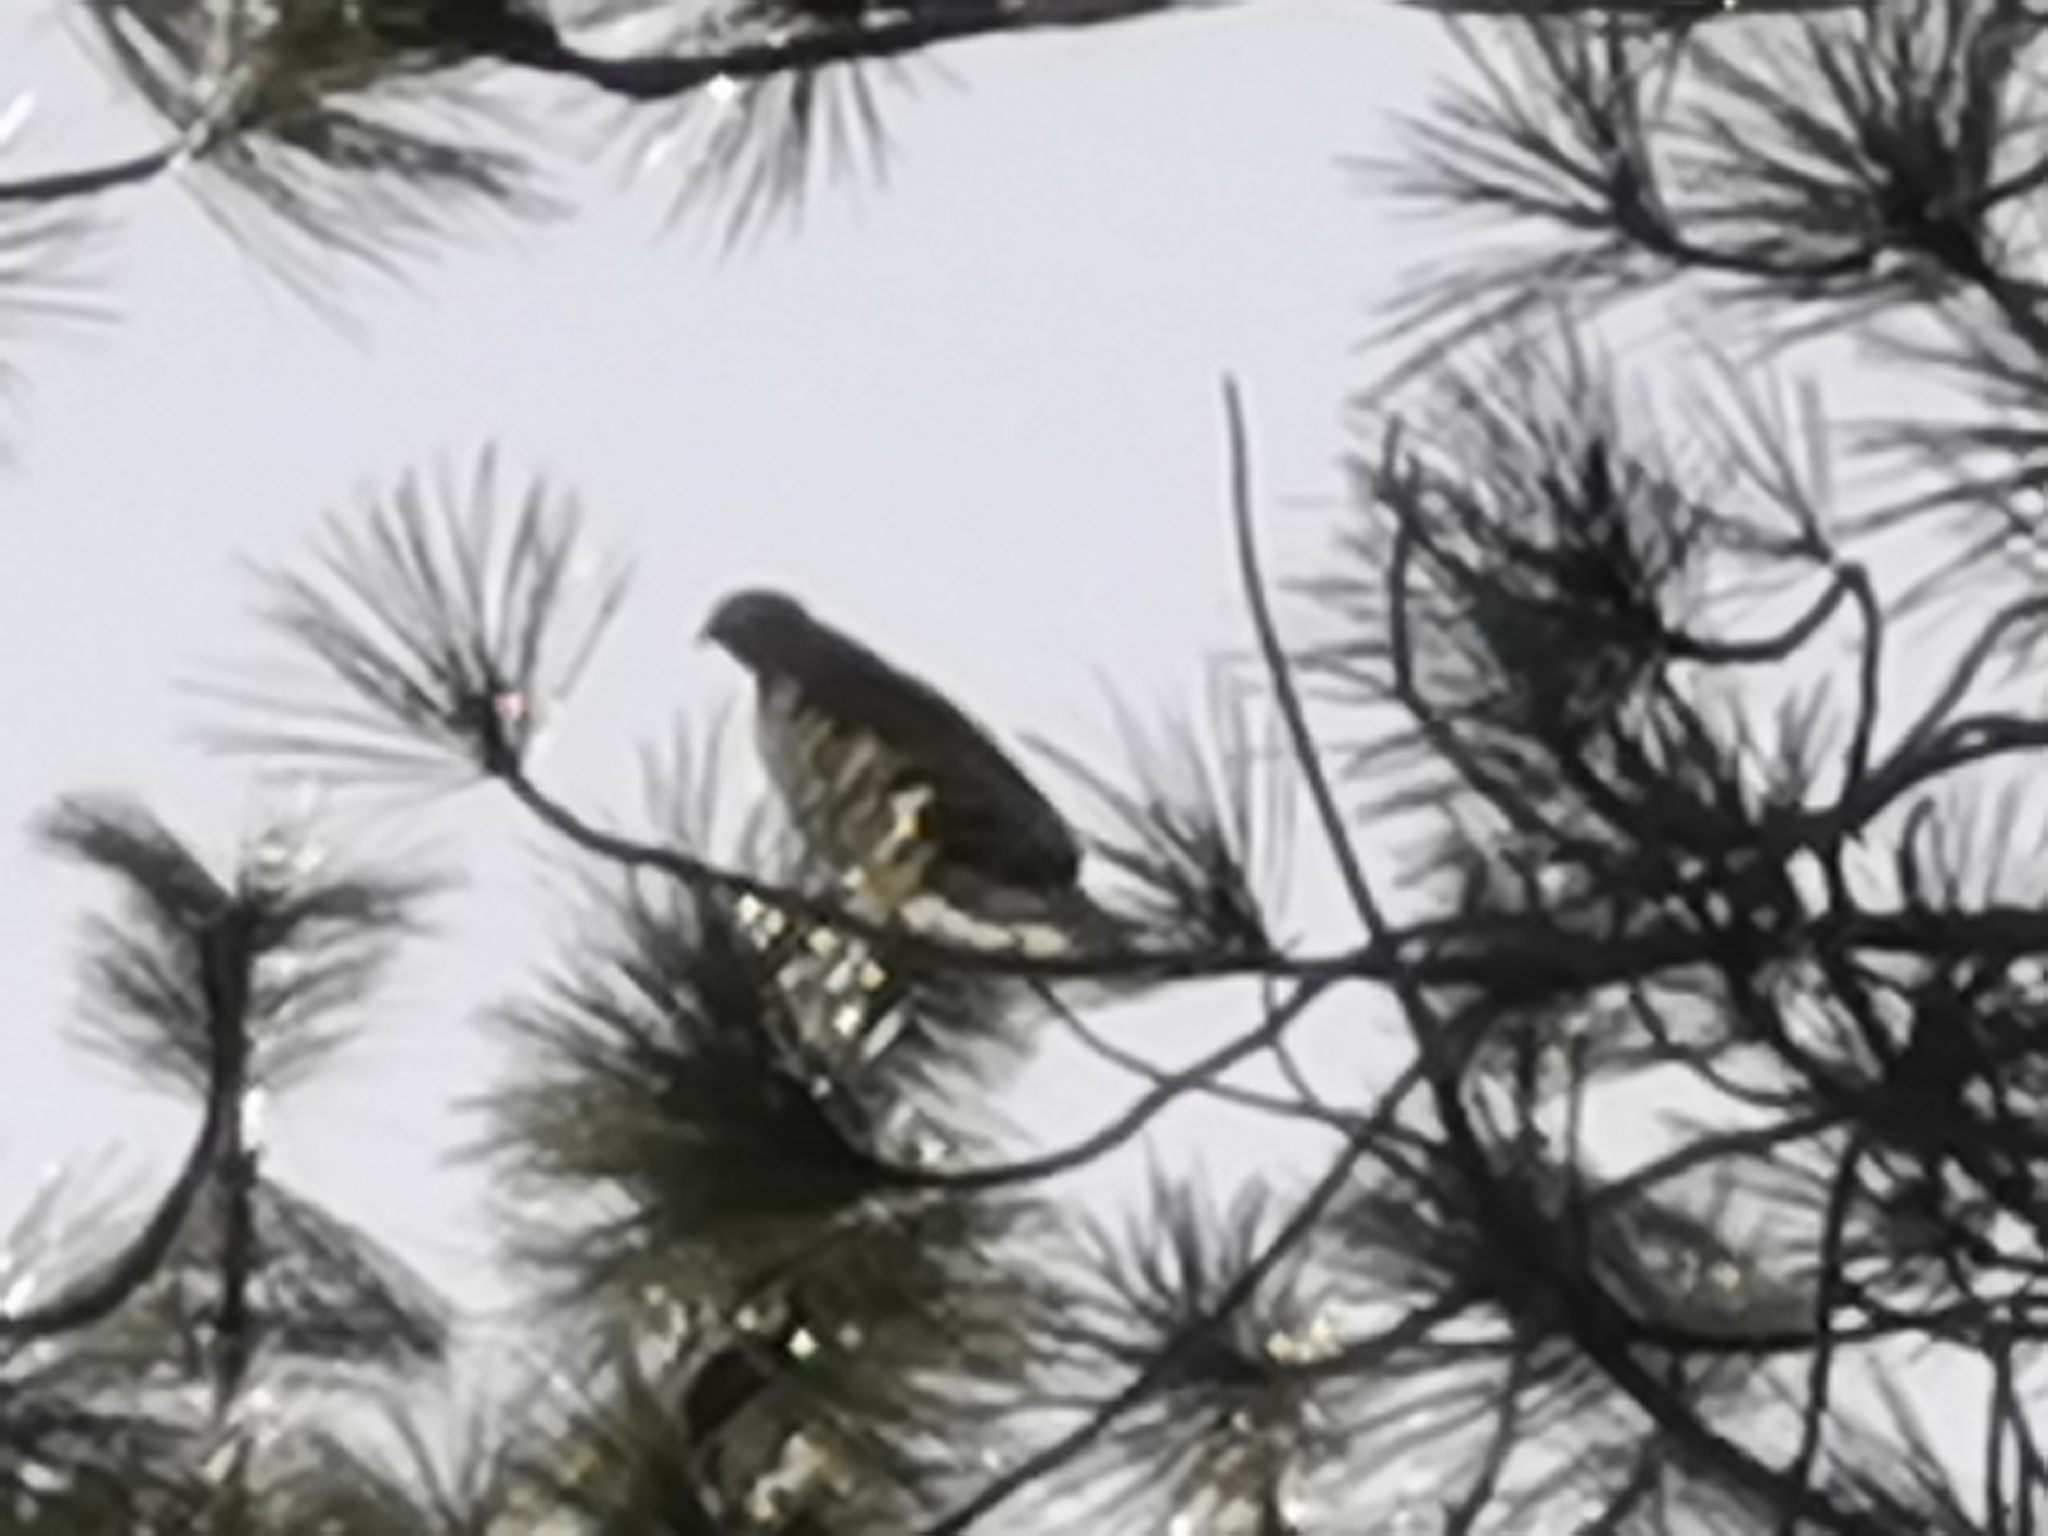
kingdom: Animalia
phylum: Chordata
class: Aves
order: Accipitriformes
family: Accipitridae
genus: Buteo
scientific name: Buteo jamaicensis
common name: Red-tailed hawk
